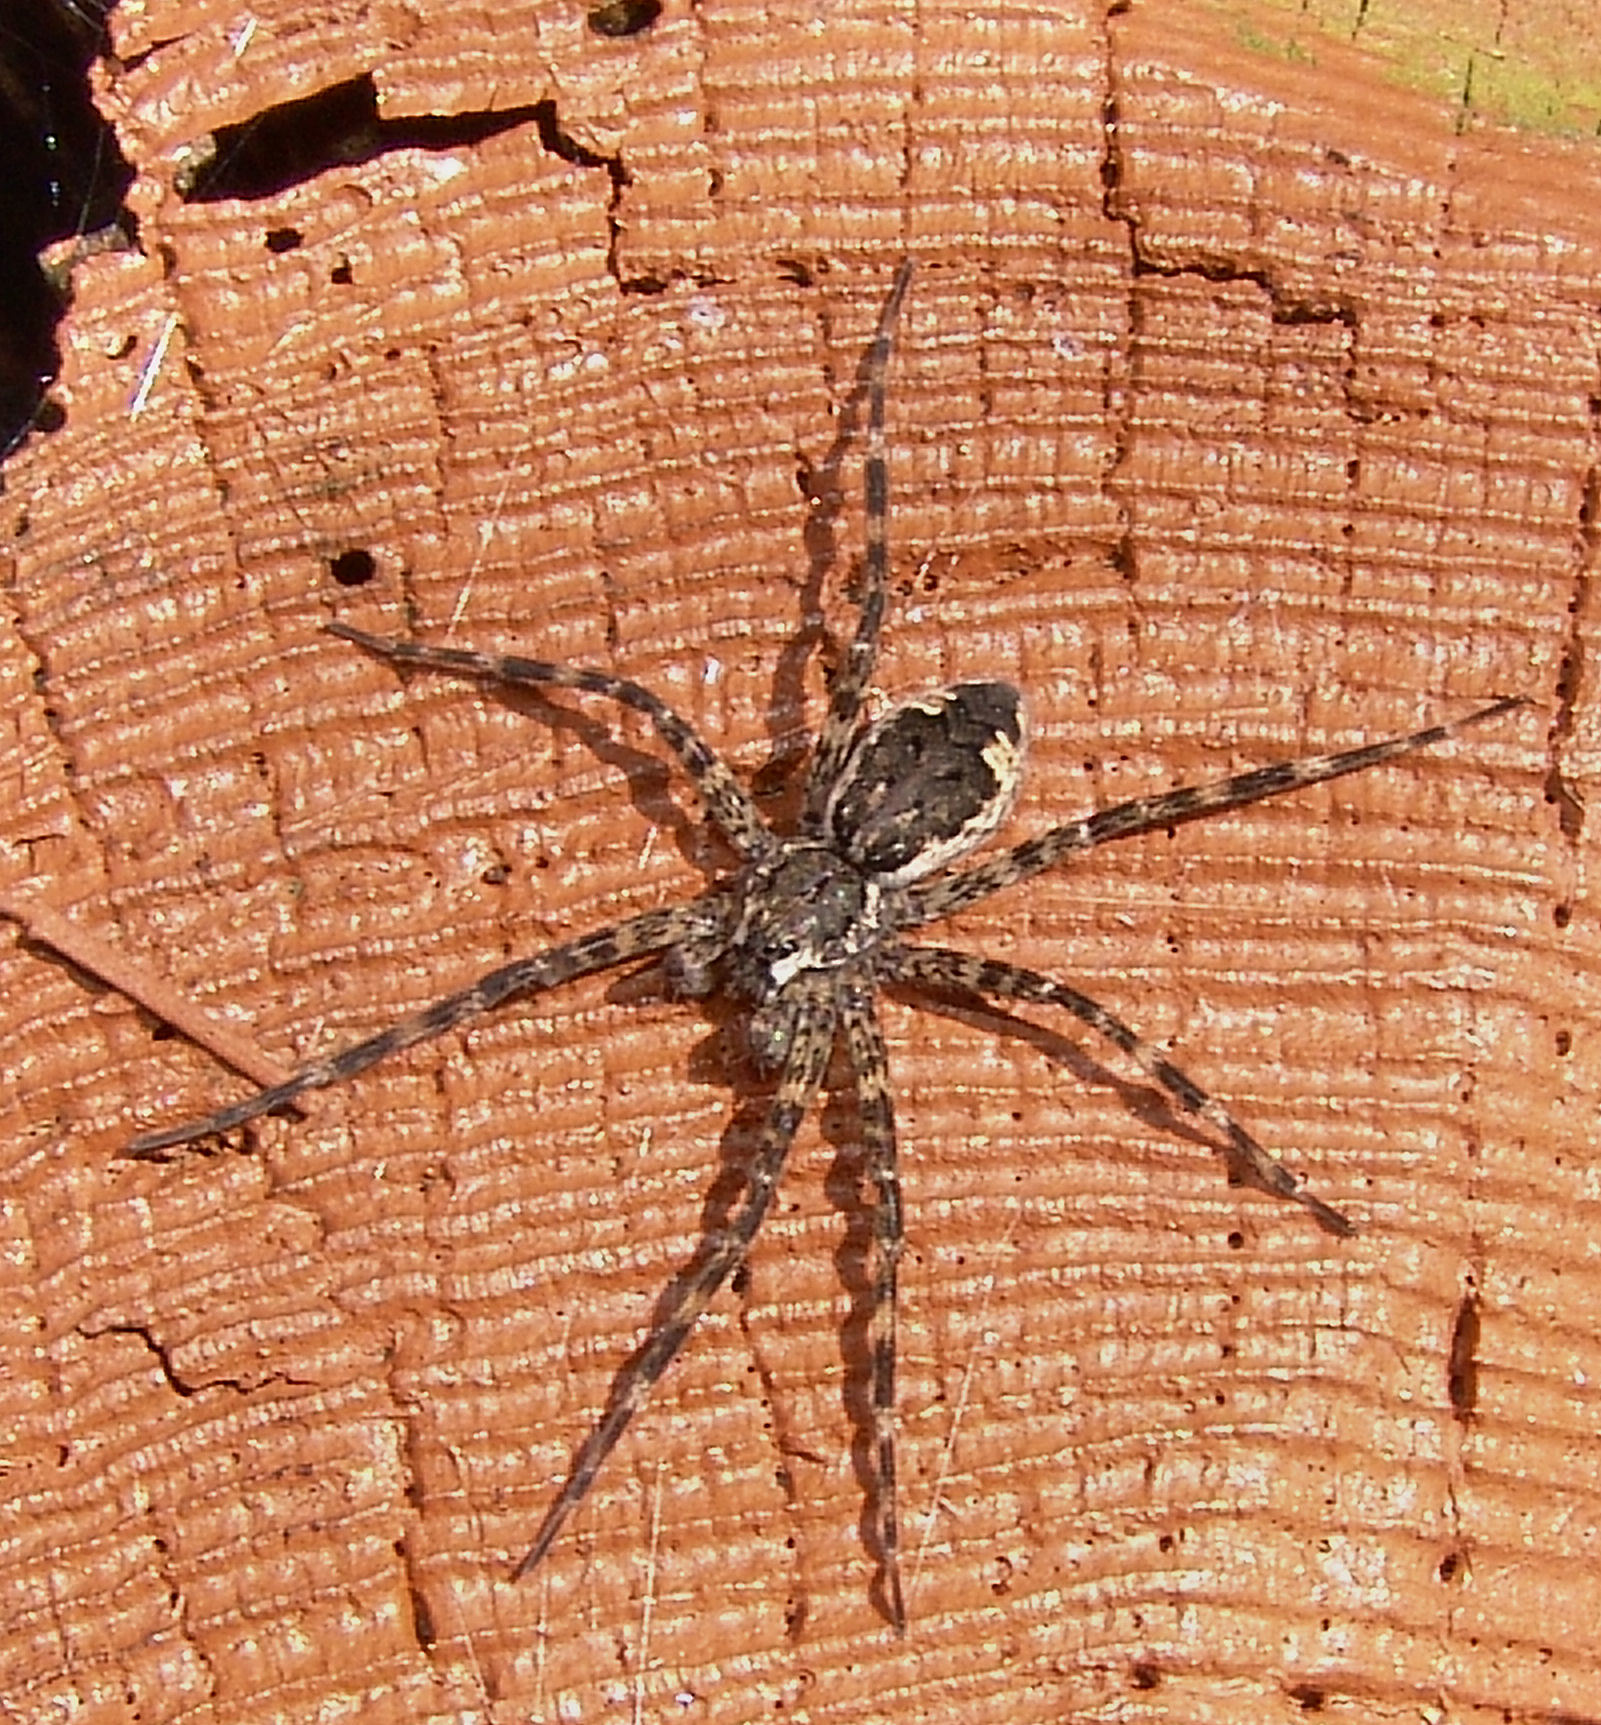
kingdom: Animalia
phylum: Arthropoda
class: Arachnida
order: Araneae
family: Pisauridae
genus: Dolomedes
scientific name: Dolomedes tenebrosus
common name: Dark fishing spider
